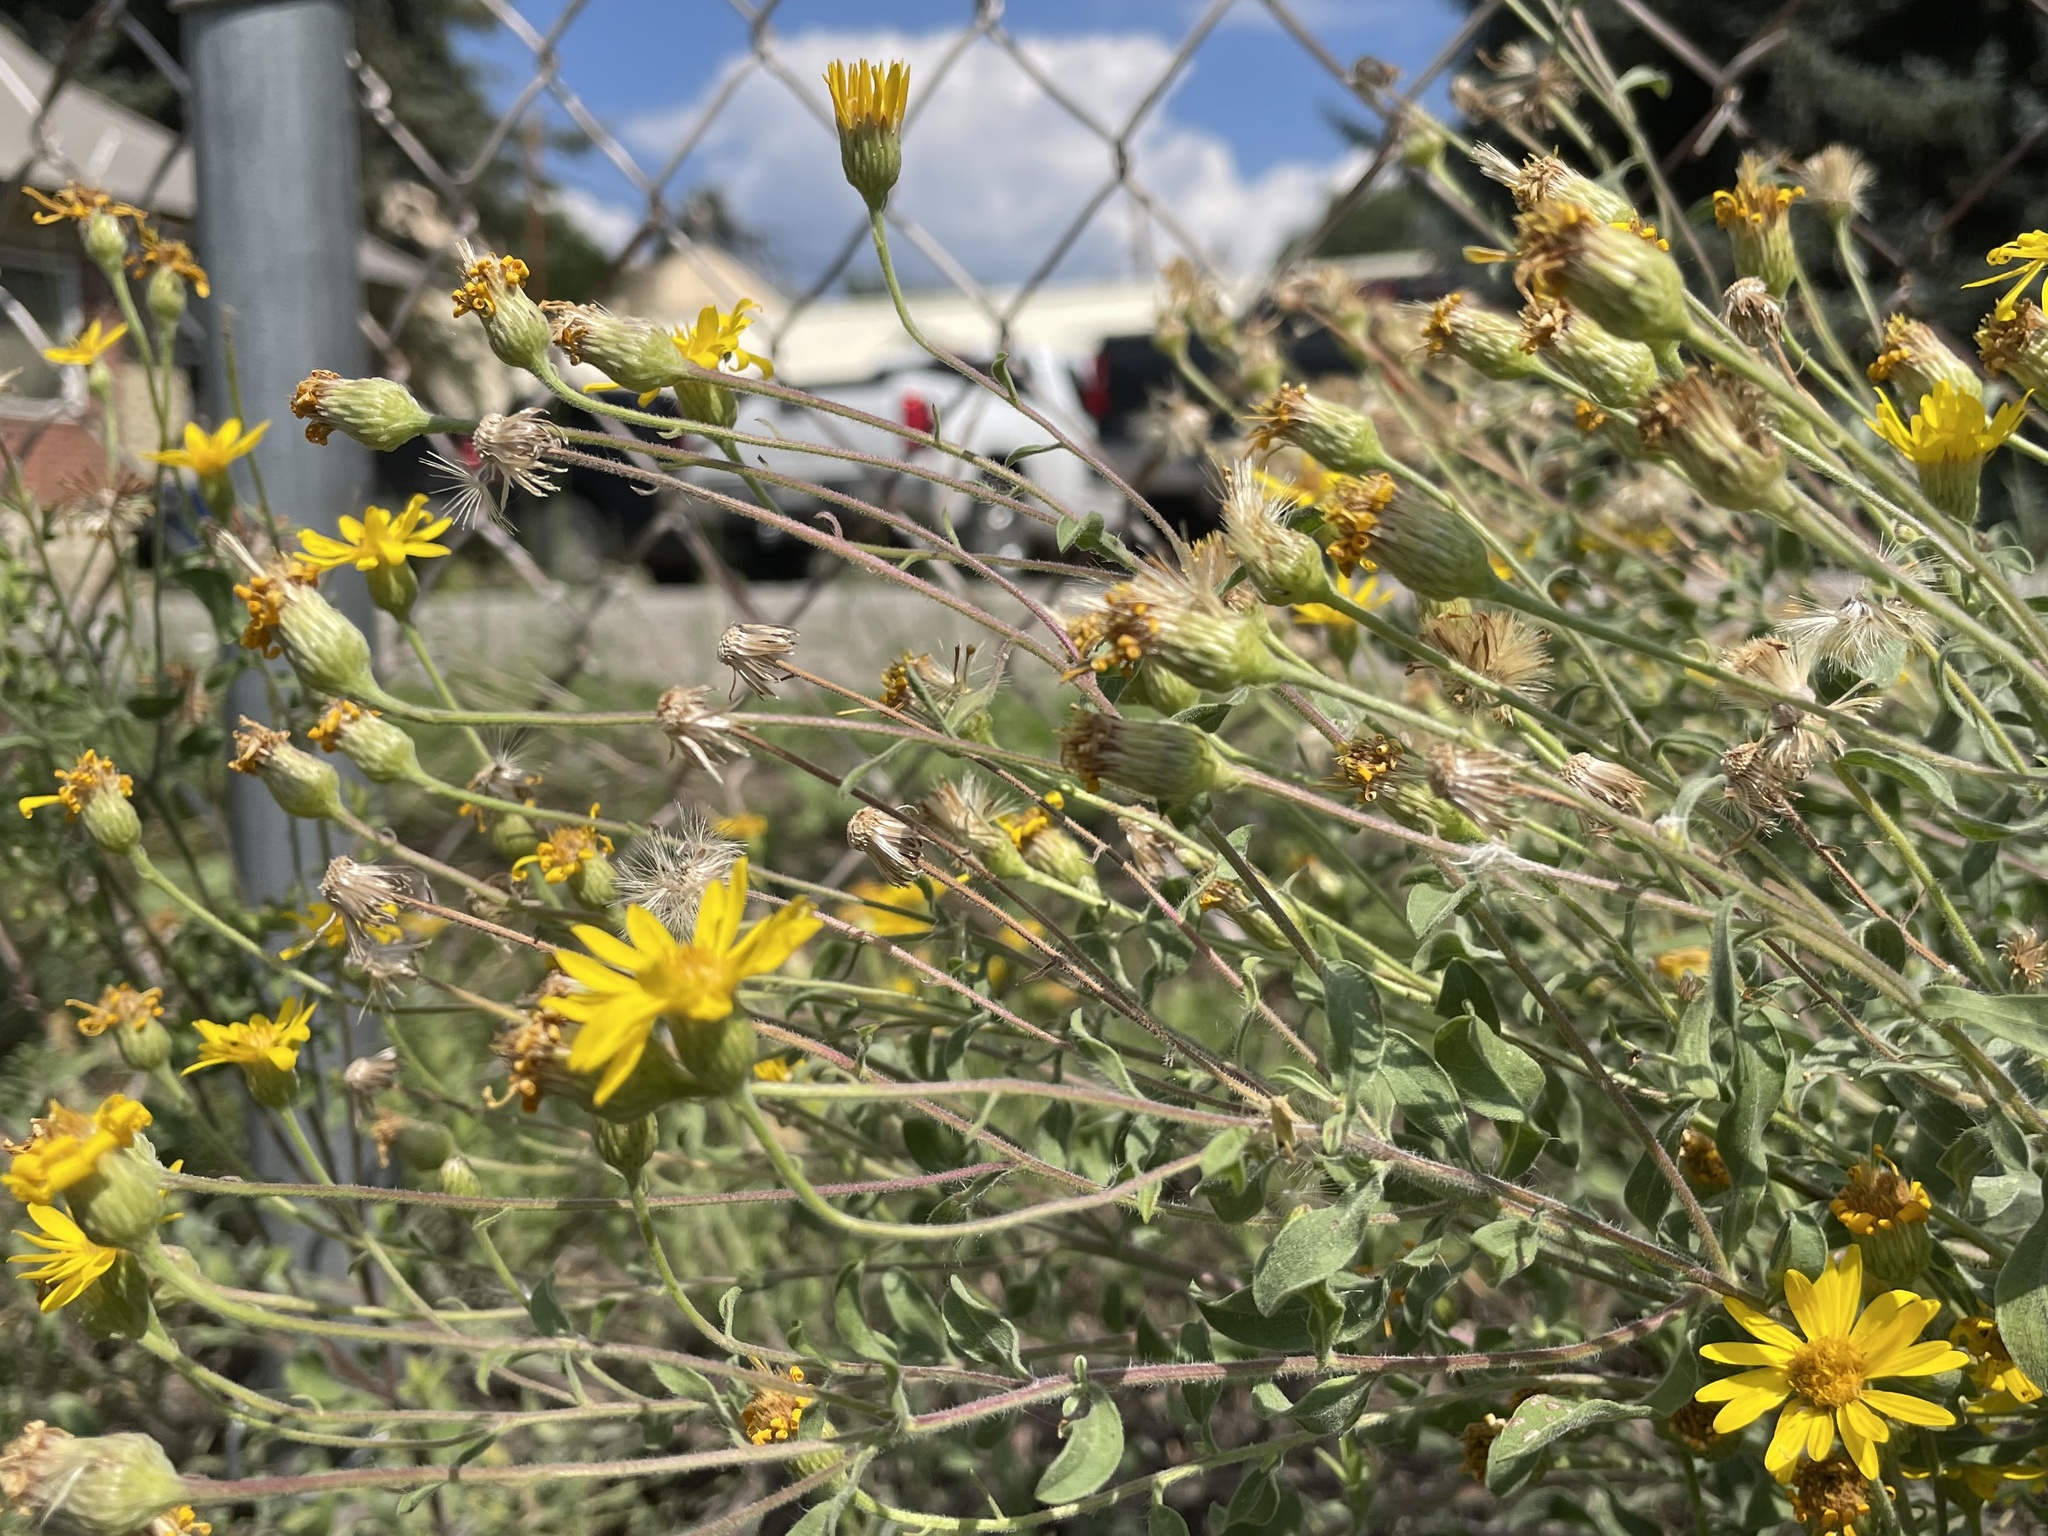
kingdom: Plantae
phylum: Tracheophyta
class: Magnoliopsida
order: Asterales
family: Asteraceae
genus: Heterotheca
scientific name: Heterotheca hirsutissima
